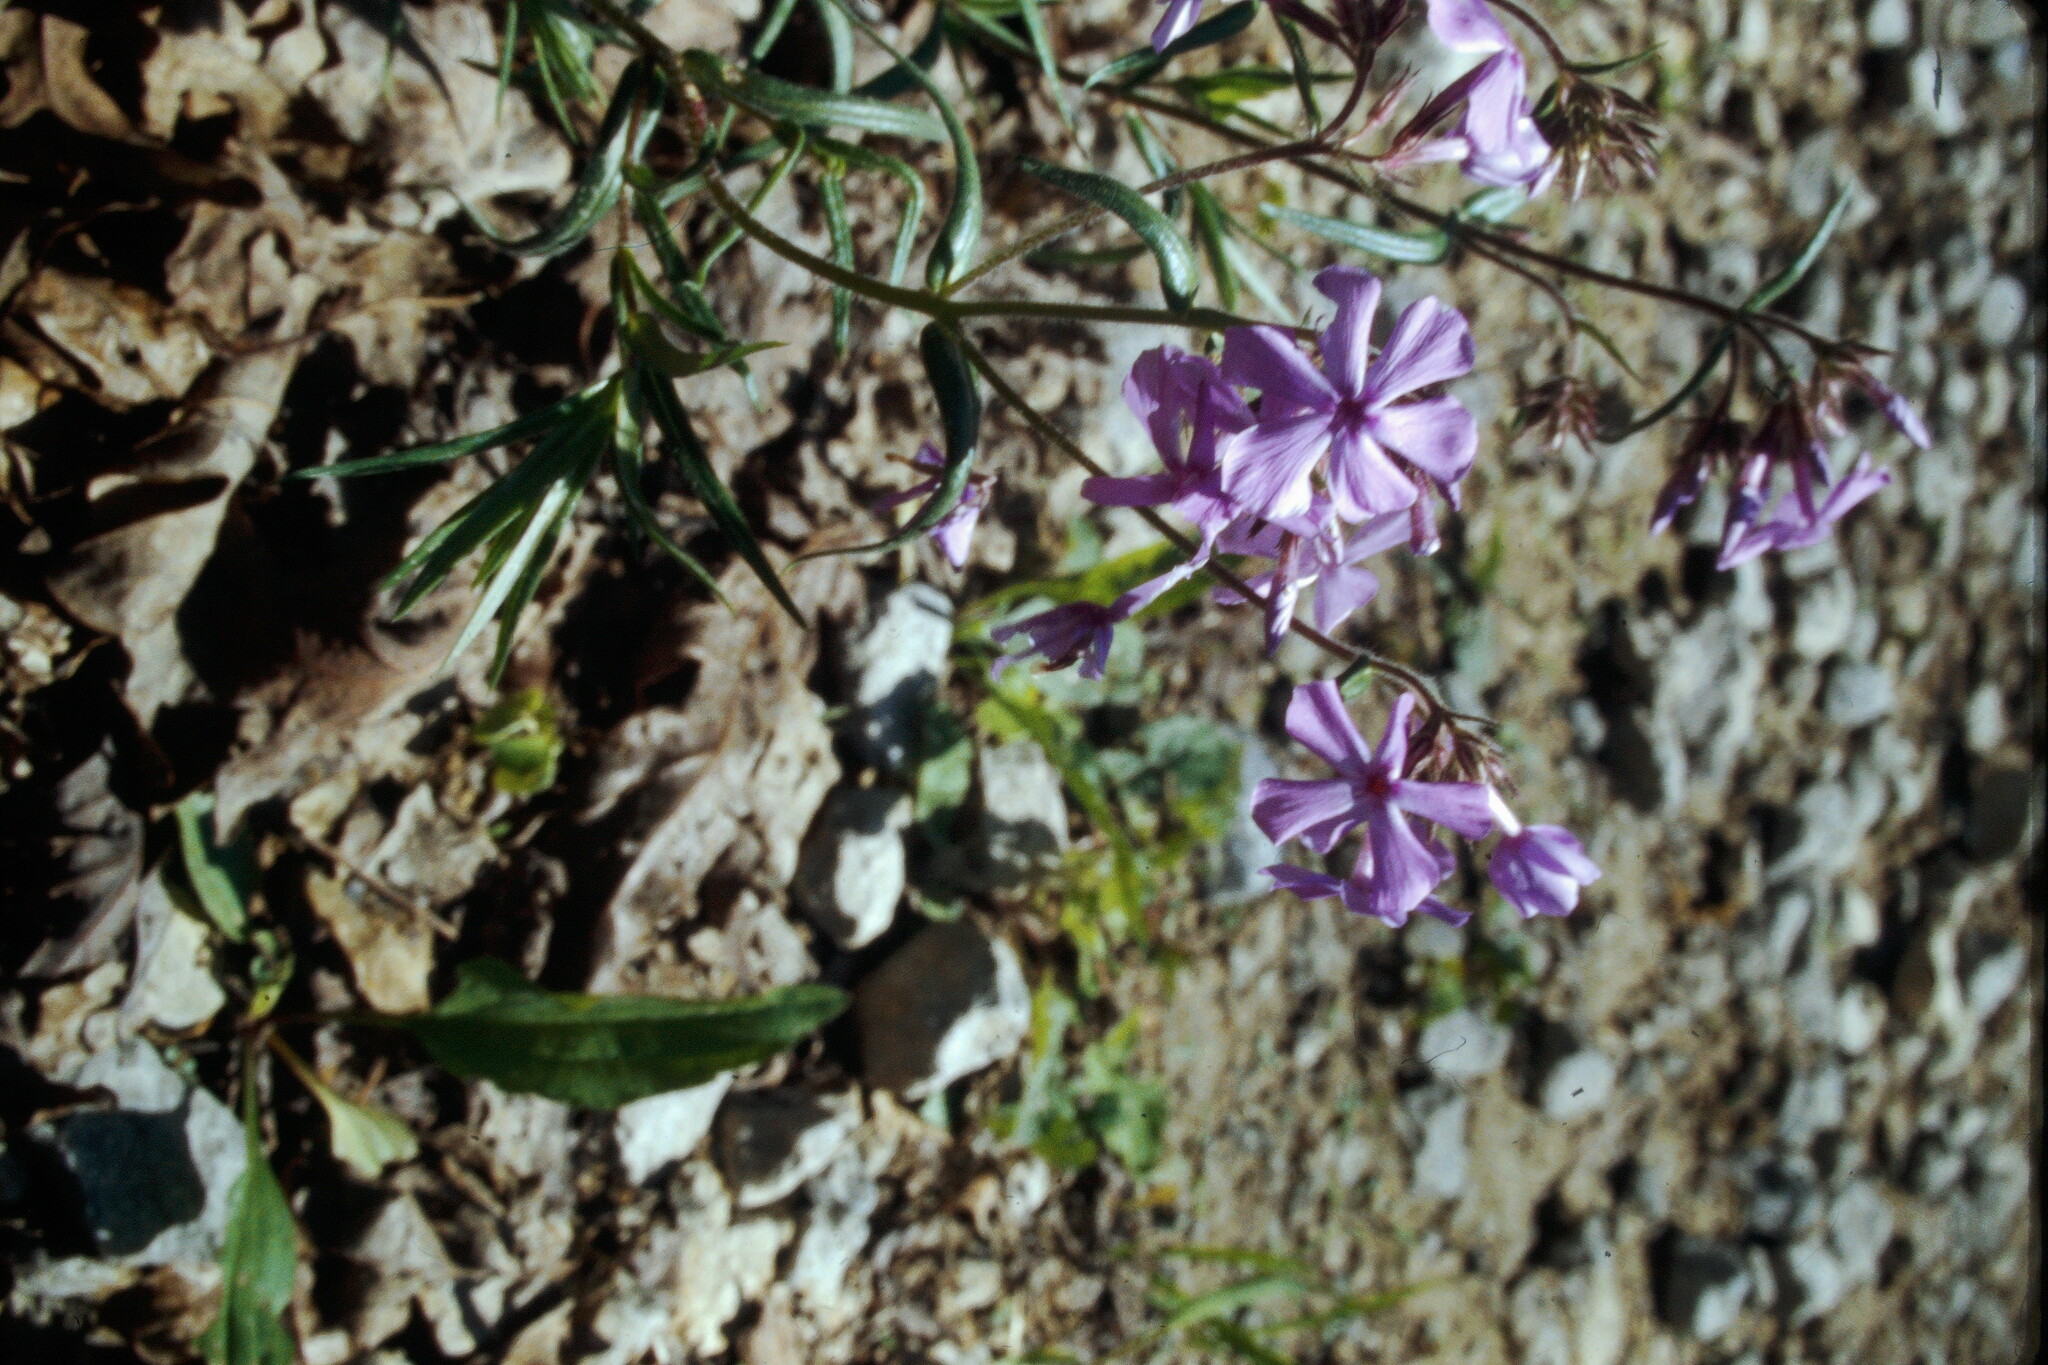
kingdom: Plantae
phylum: Tracheophyta
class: Magnoliopsida
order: Ericales
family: Polemoniaceae
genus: Phlox
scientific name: Phlox pilosa
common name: Prairie phlox
